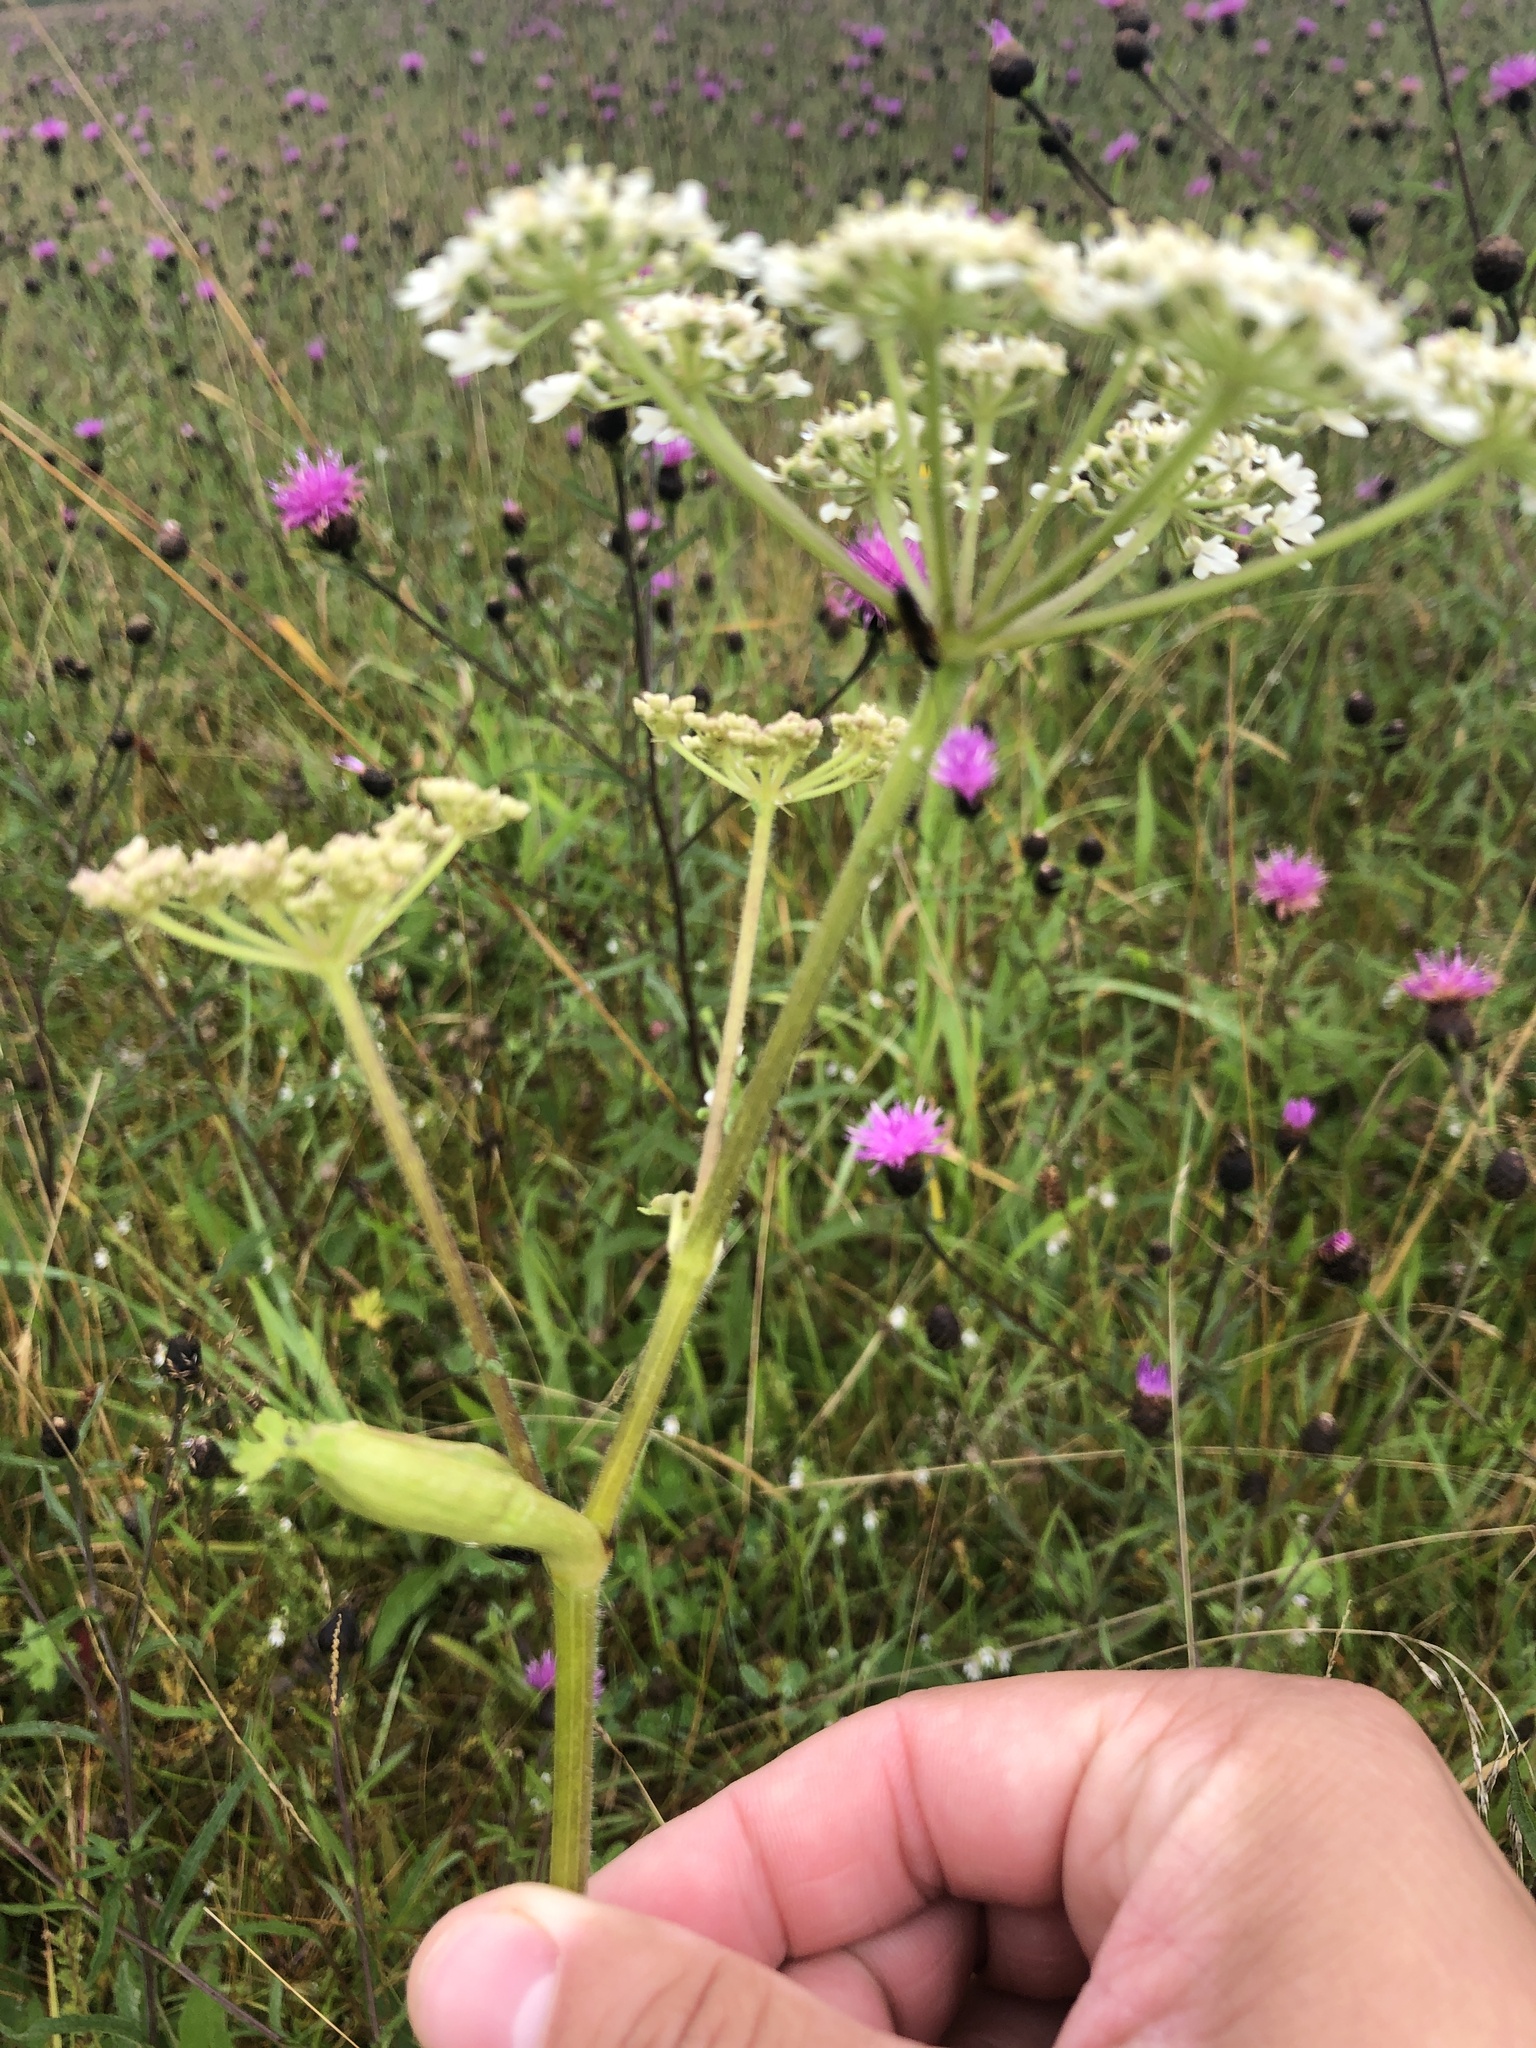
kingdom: Plantae
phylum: Tracheophyta
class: Magnoliopsida
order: Apiales
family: Apiaceae
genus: Heracleum
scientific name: Heracleum sphondylium
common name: Hogweed
